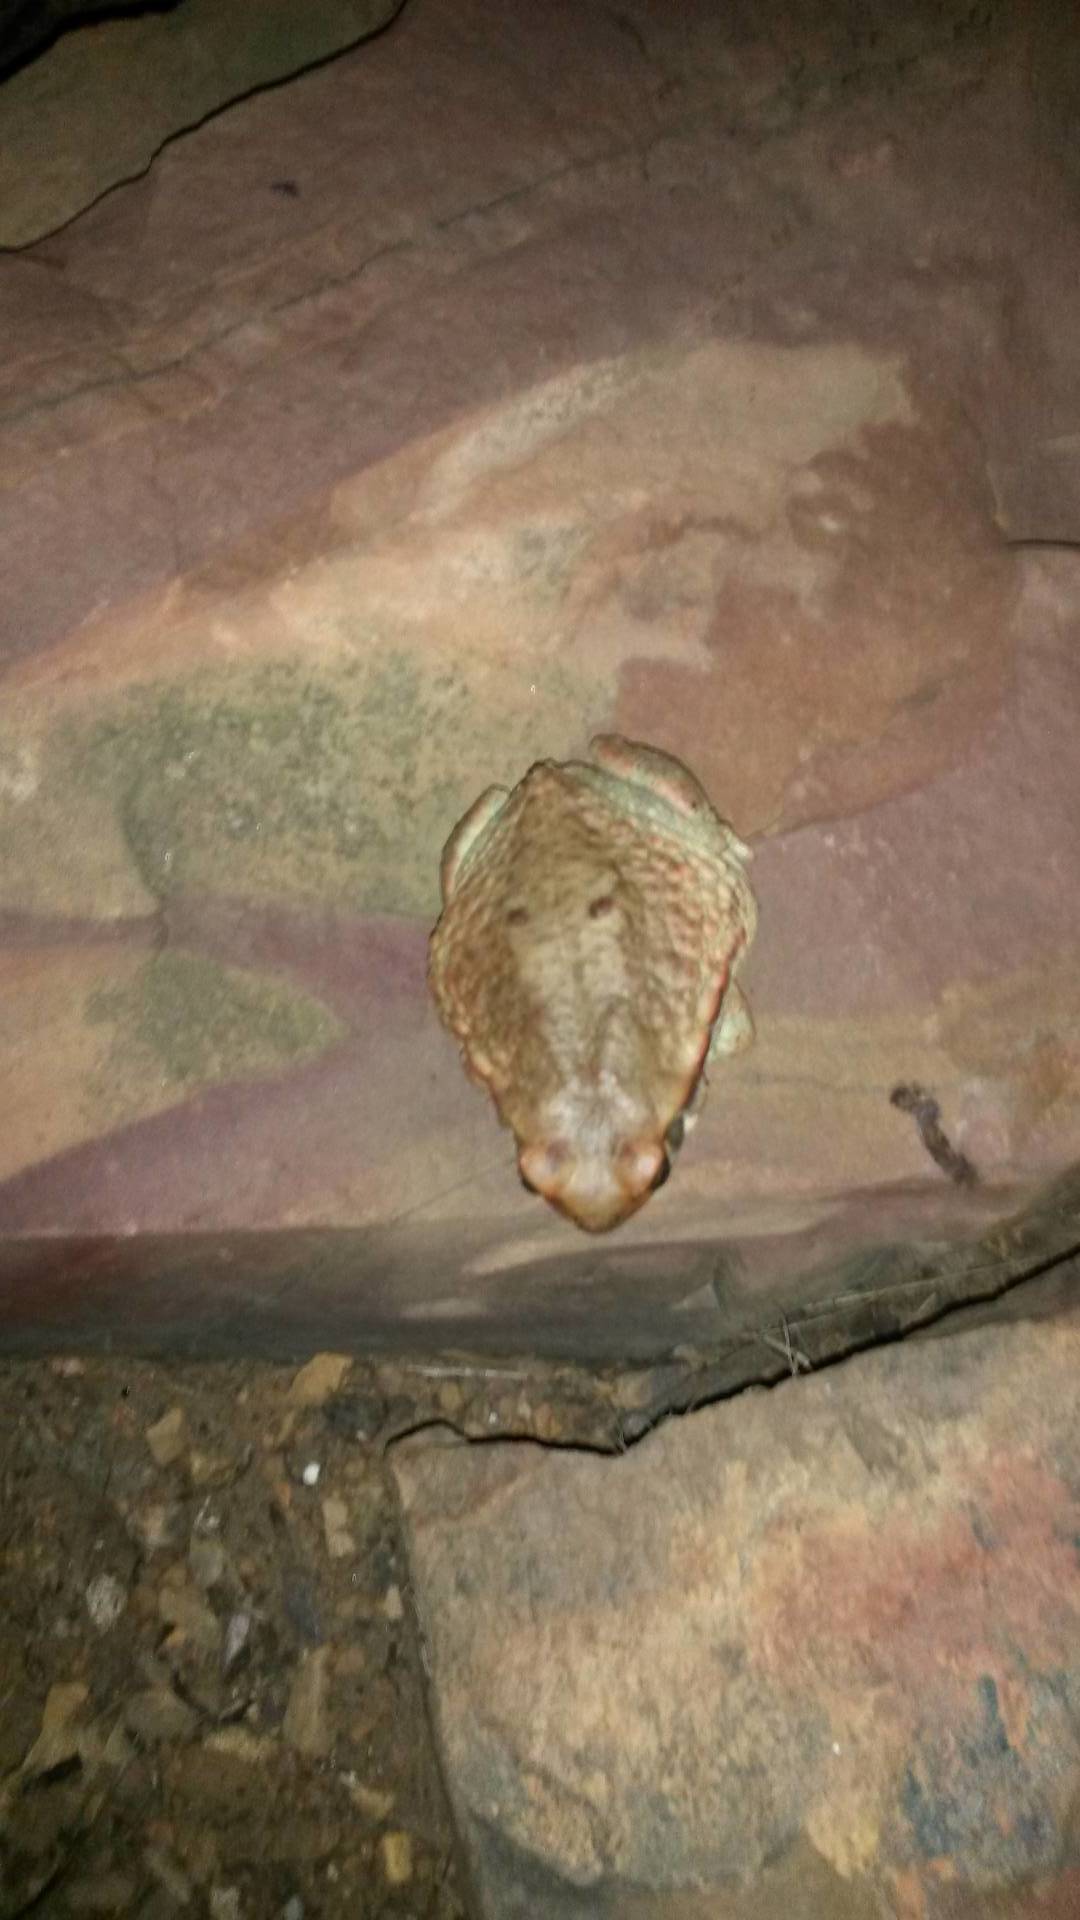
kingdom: Animalia
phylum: Chordata
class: Amphibia
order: Anura
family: Bufonidae
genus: Schismaderma
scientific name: Schismaderma carens
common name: African split-skin toad
